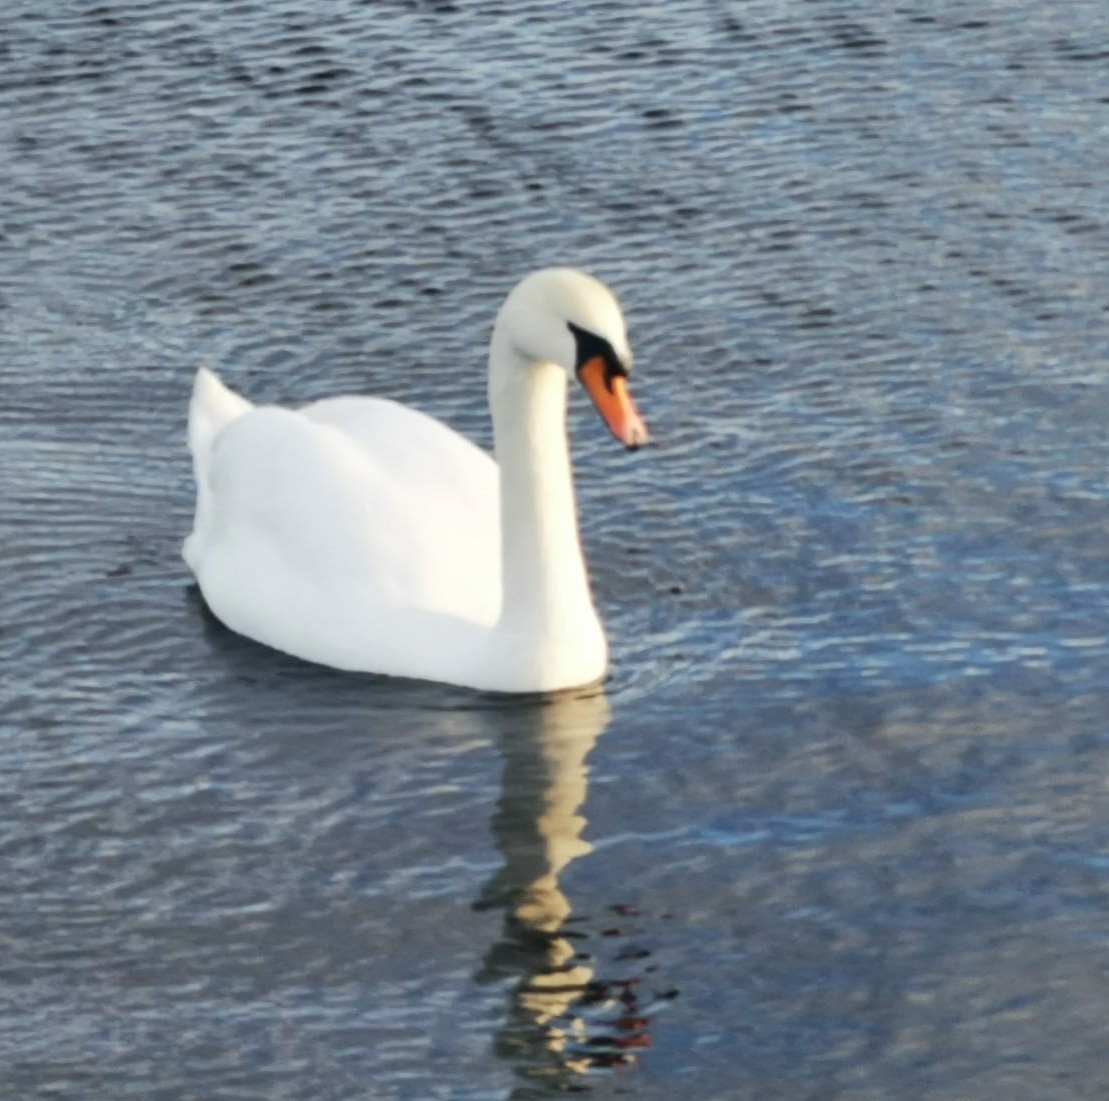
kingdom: Animalia
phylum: Chordata
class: Aves
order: Anseriformes
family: Anatidae
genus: Cygnus
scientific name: Cygnus olor
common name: Mute swan
